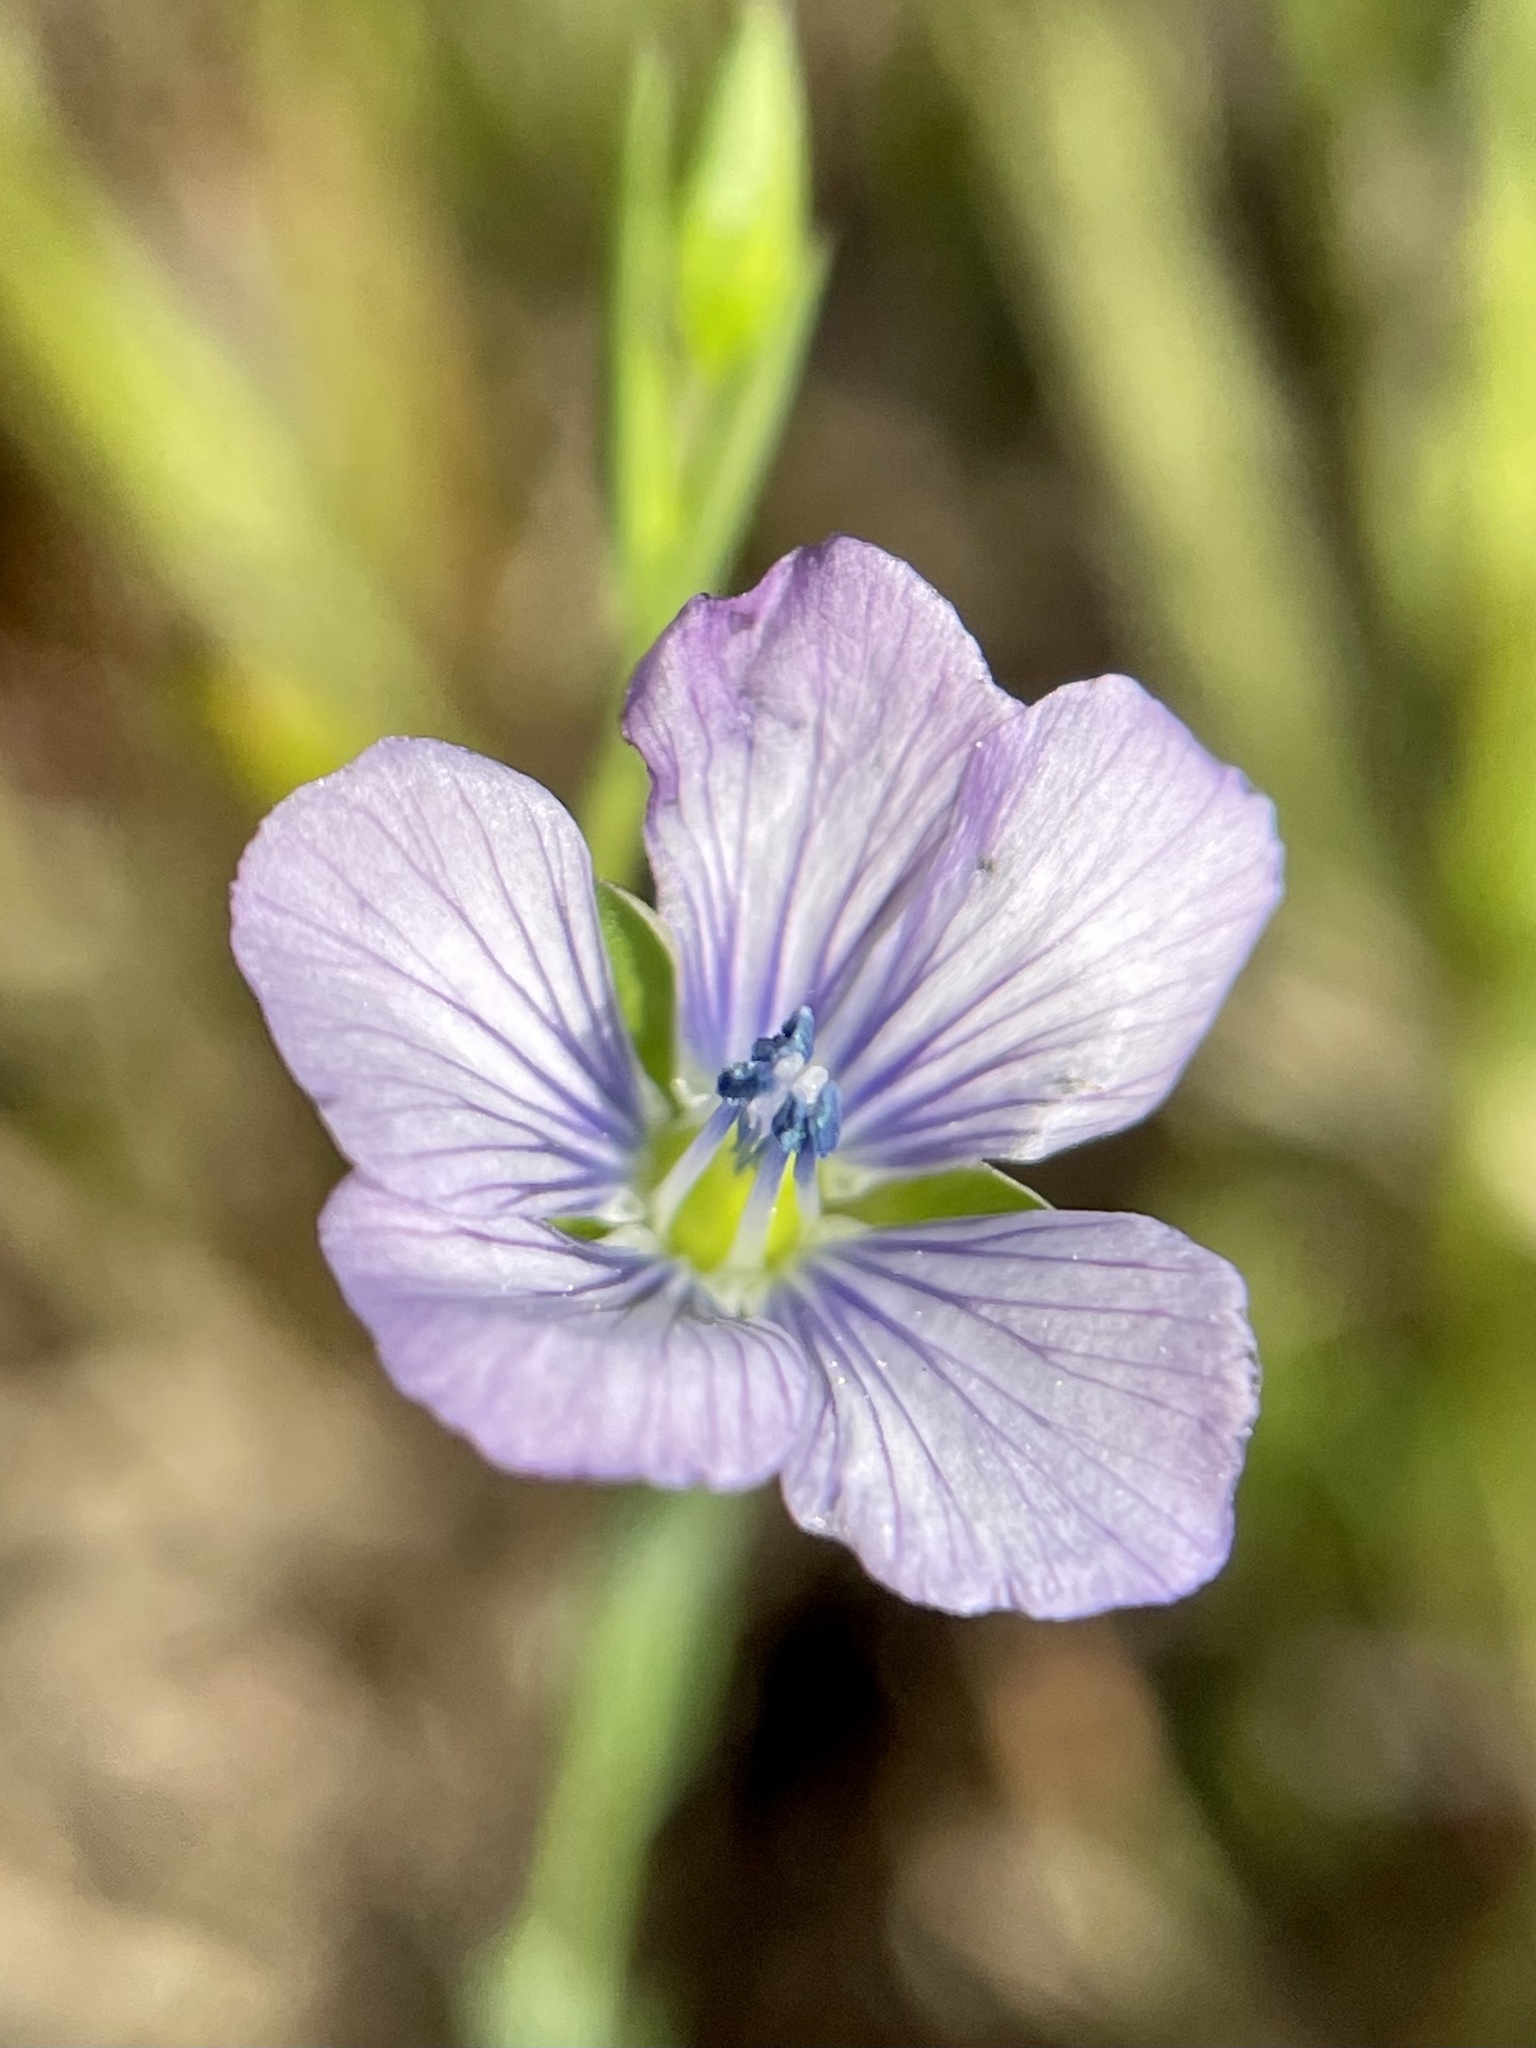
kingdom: Plantae
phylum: Tracheophyta
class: Magnoliopsida
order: Malpighiales
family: Linaceae
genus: Linum
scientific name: Linum bienne
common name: Pale flax
